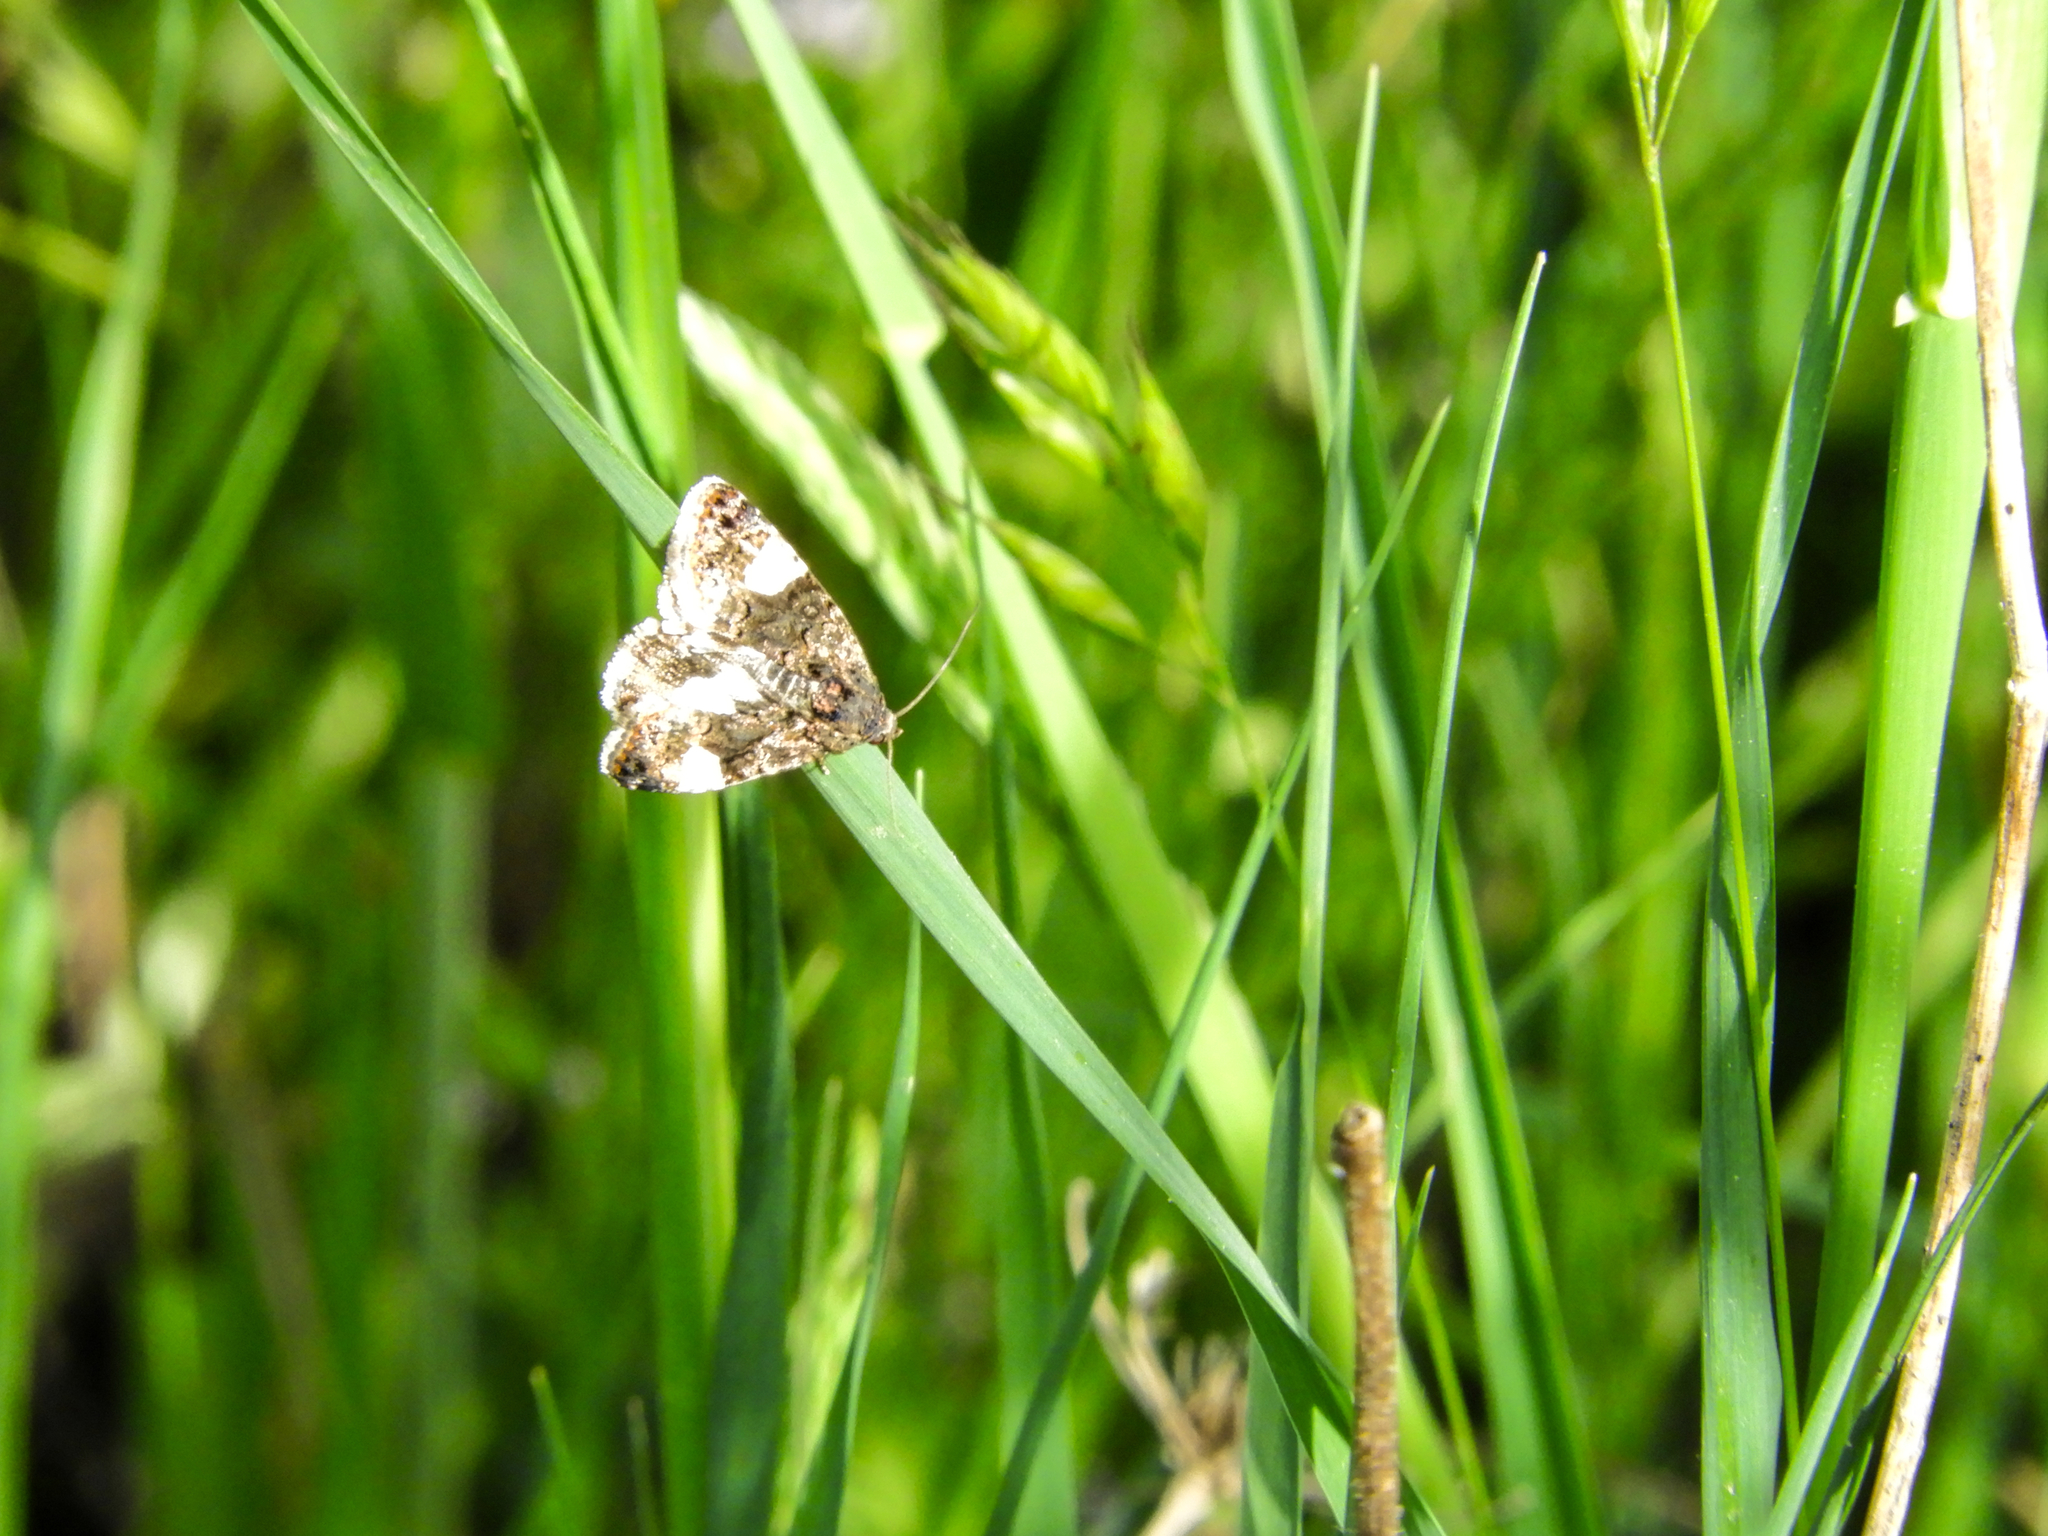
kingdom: Animalia
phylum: Arthropoda
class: Insecta
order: Lepidoptera
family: Erebidae
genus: Tyta
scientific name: Tyta luctuosa
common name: Four-spotted
